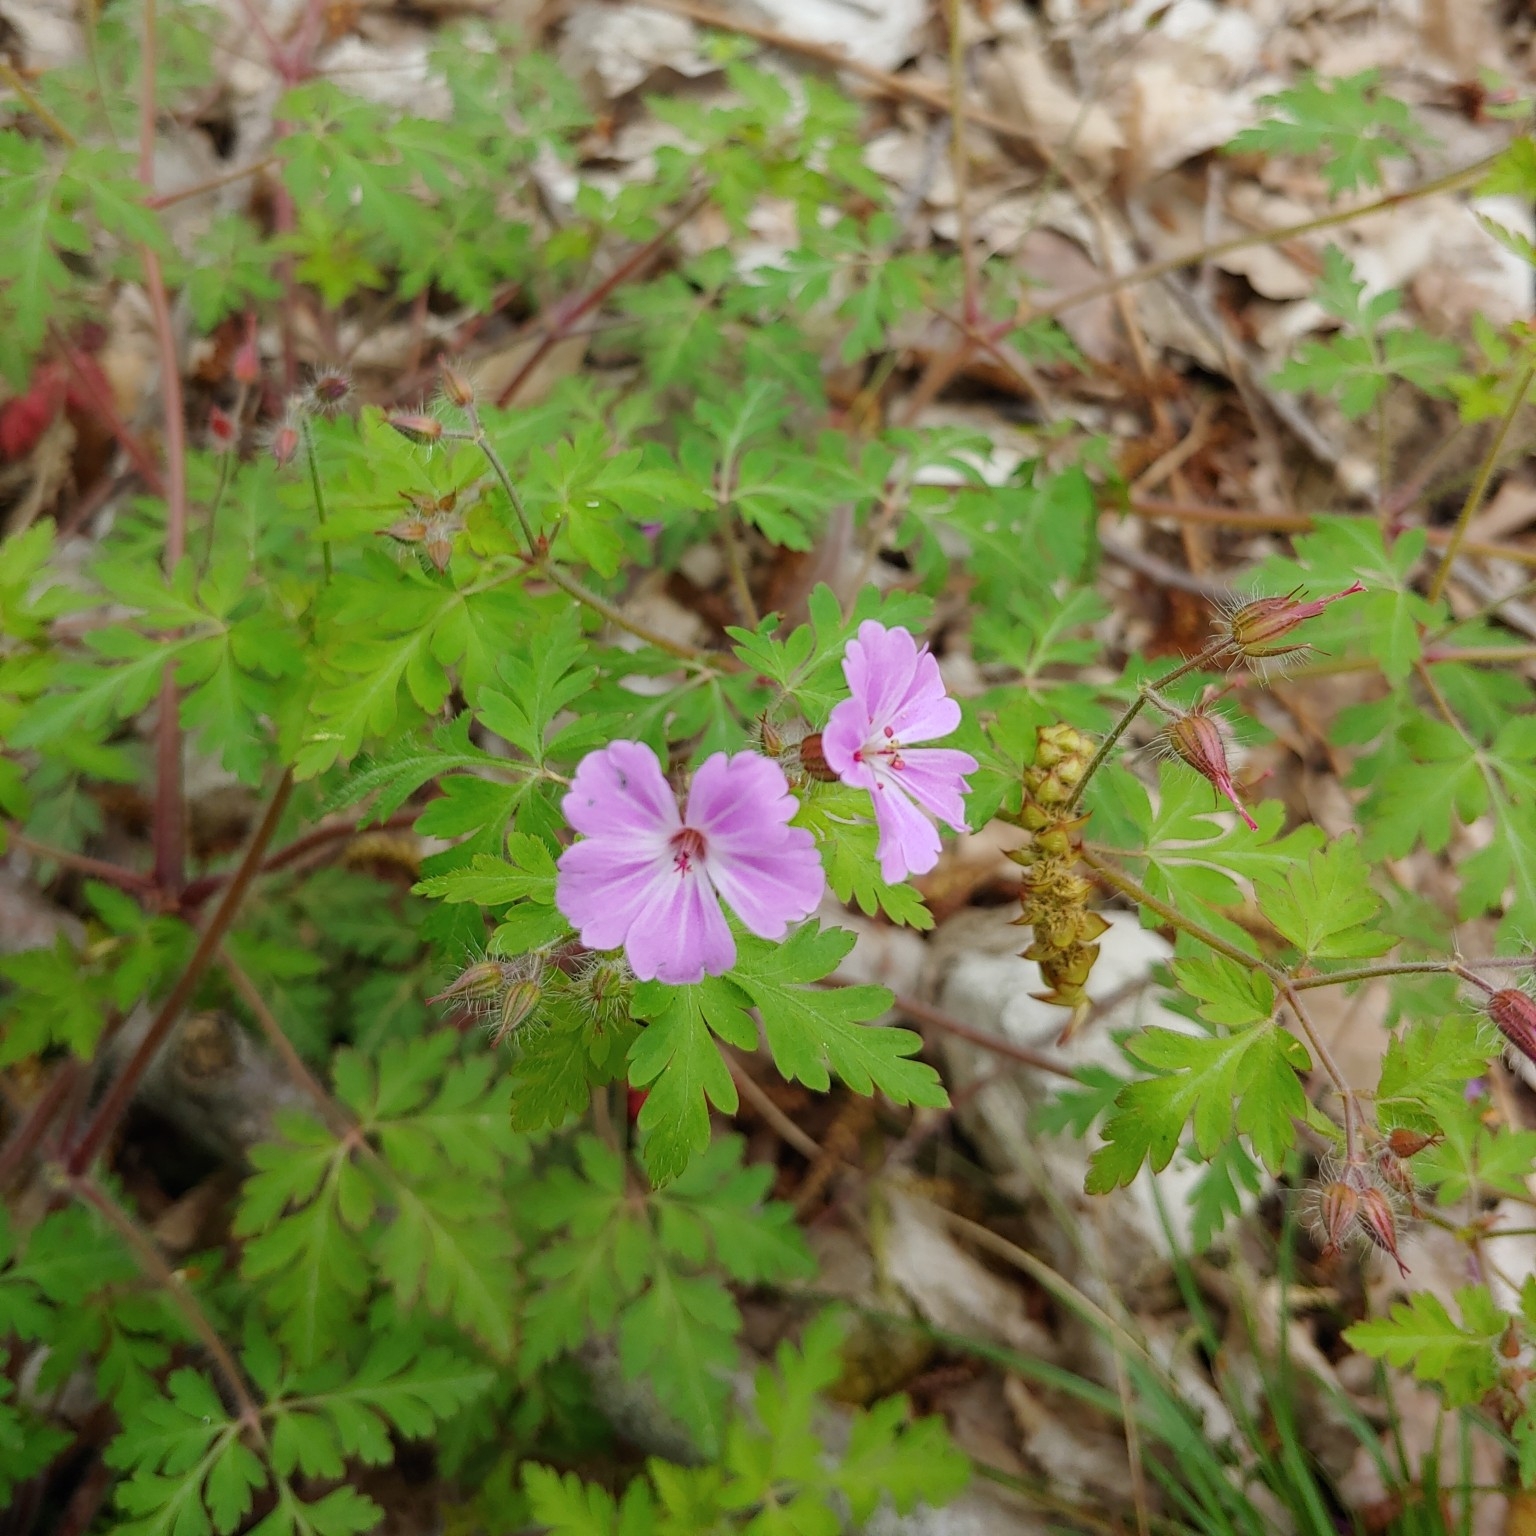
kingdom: Plantae
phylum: Tracheophyta
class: Magnoliopsida
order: Geraniales
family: Geraniaceae
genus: Geranium
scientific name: Geranium robertianum
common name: Herb-robert
